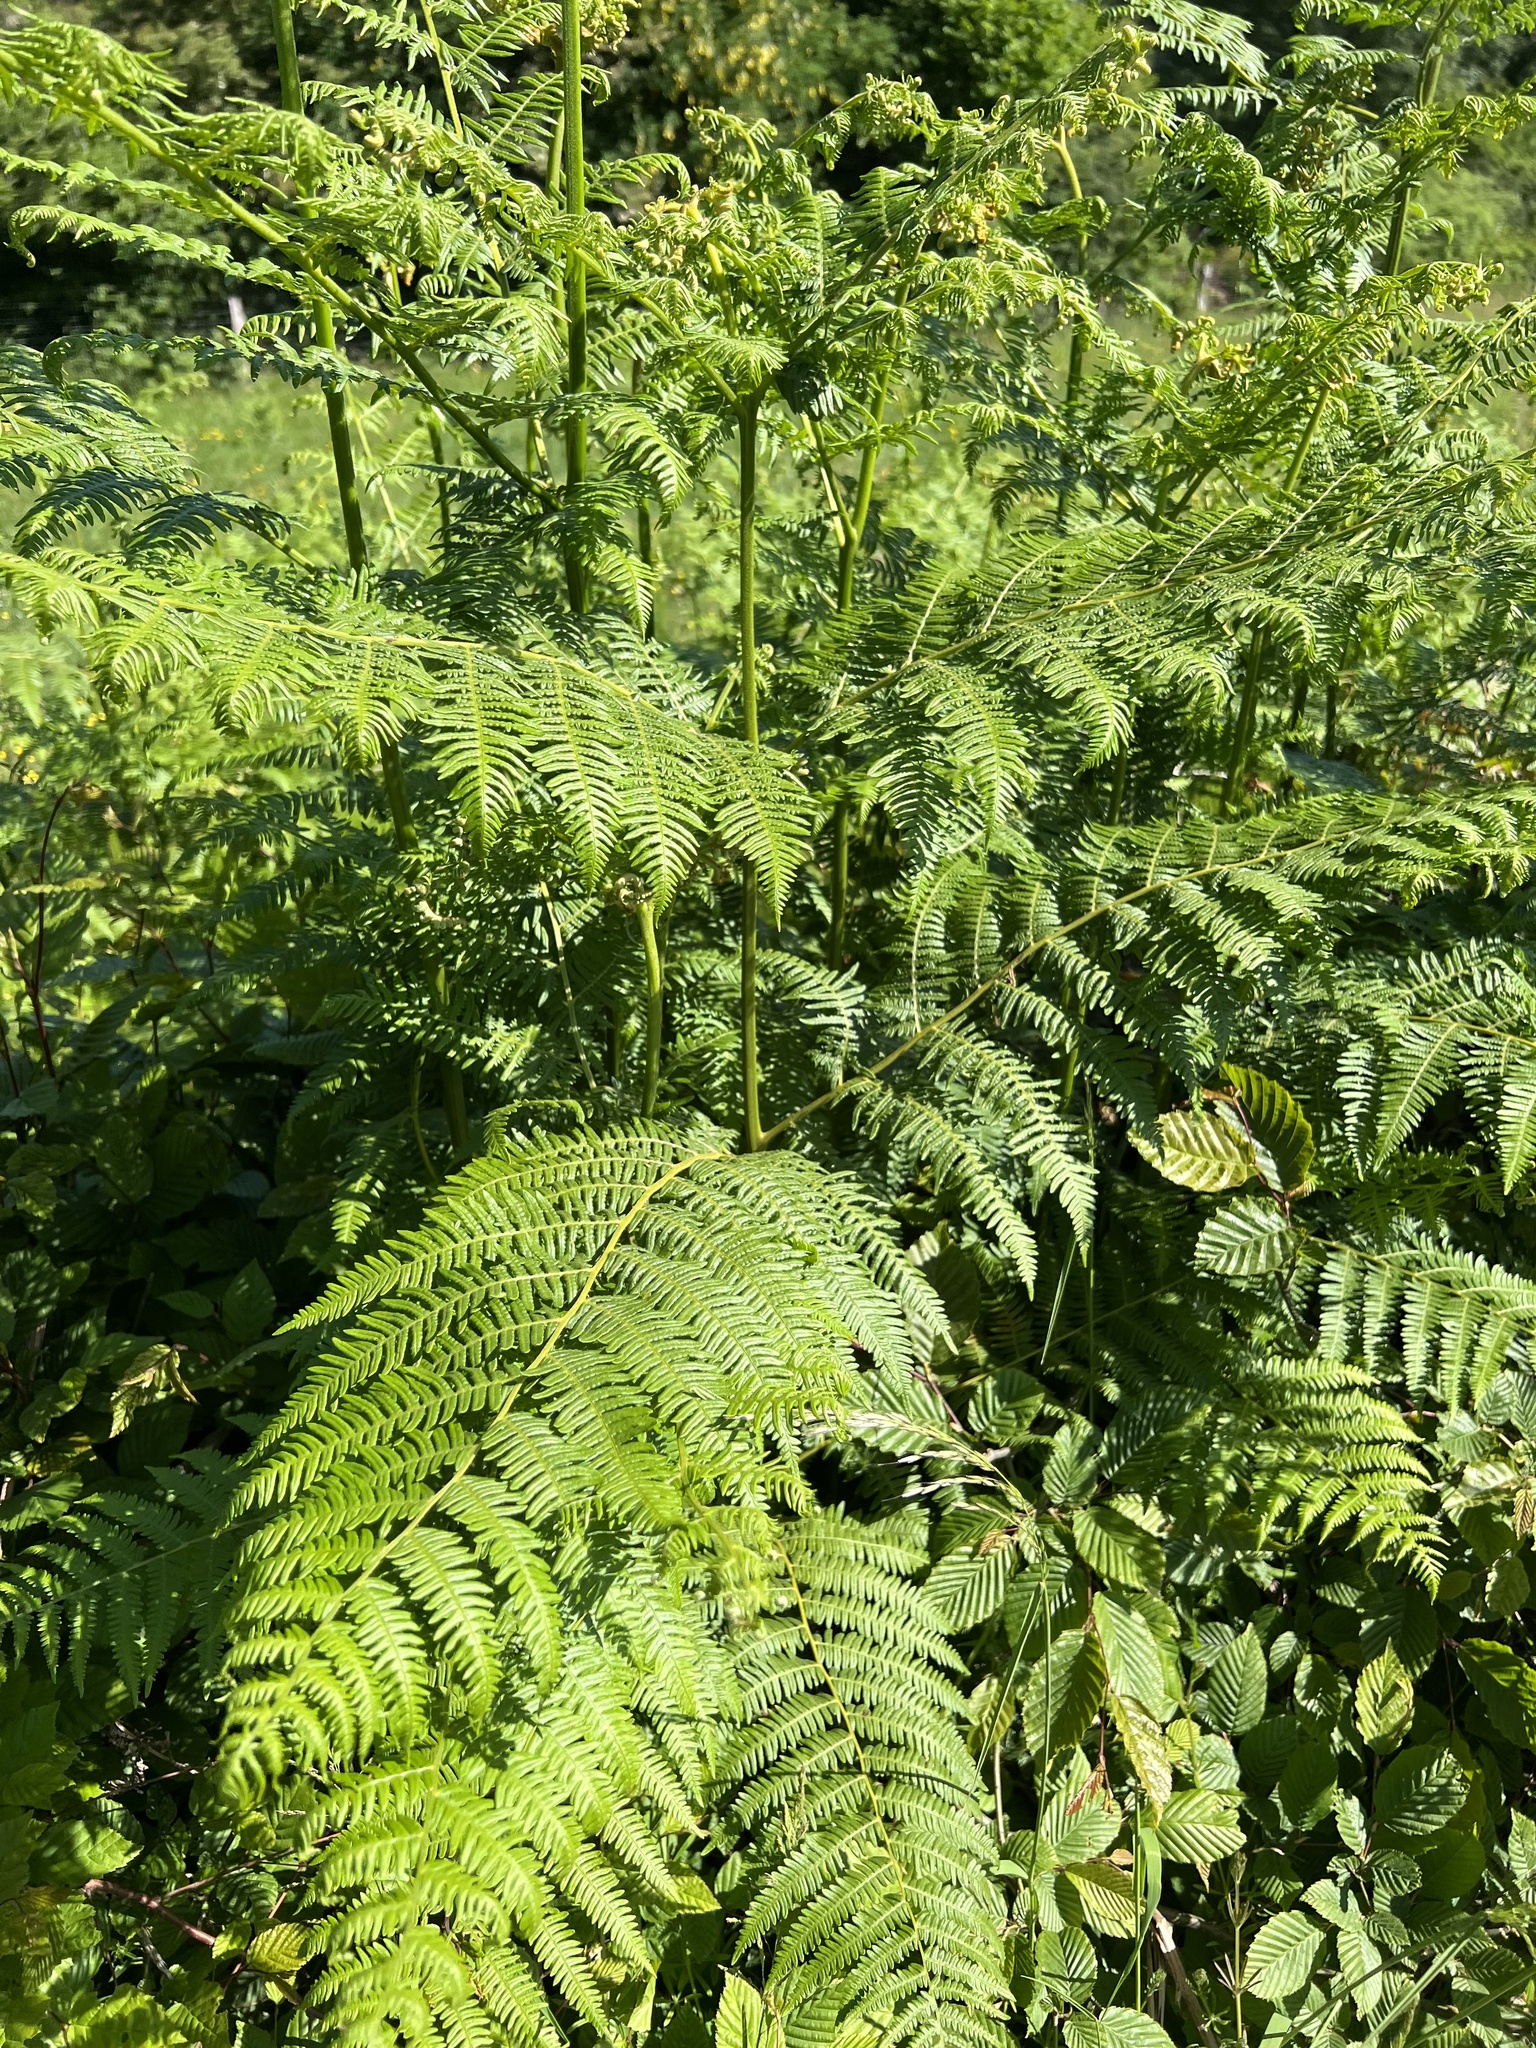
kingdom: Plantae
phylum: Tracheophyta
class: Polypodiopsida
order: Polypodiales
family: Dennstaedtiaceae
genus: Pteridium
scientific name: Pteridium aquilinum
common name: Bracken
